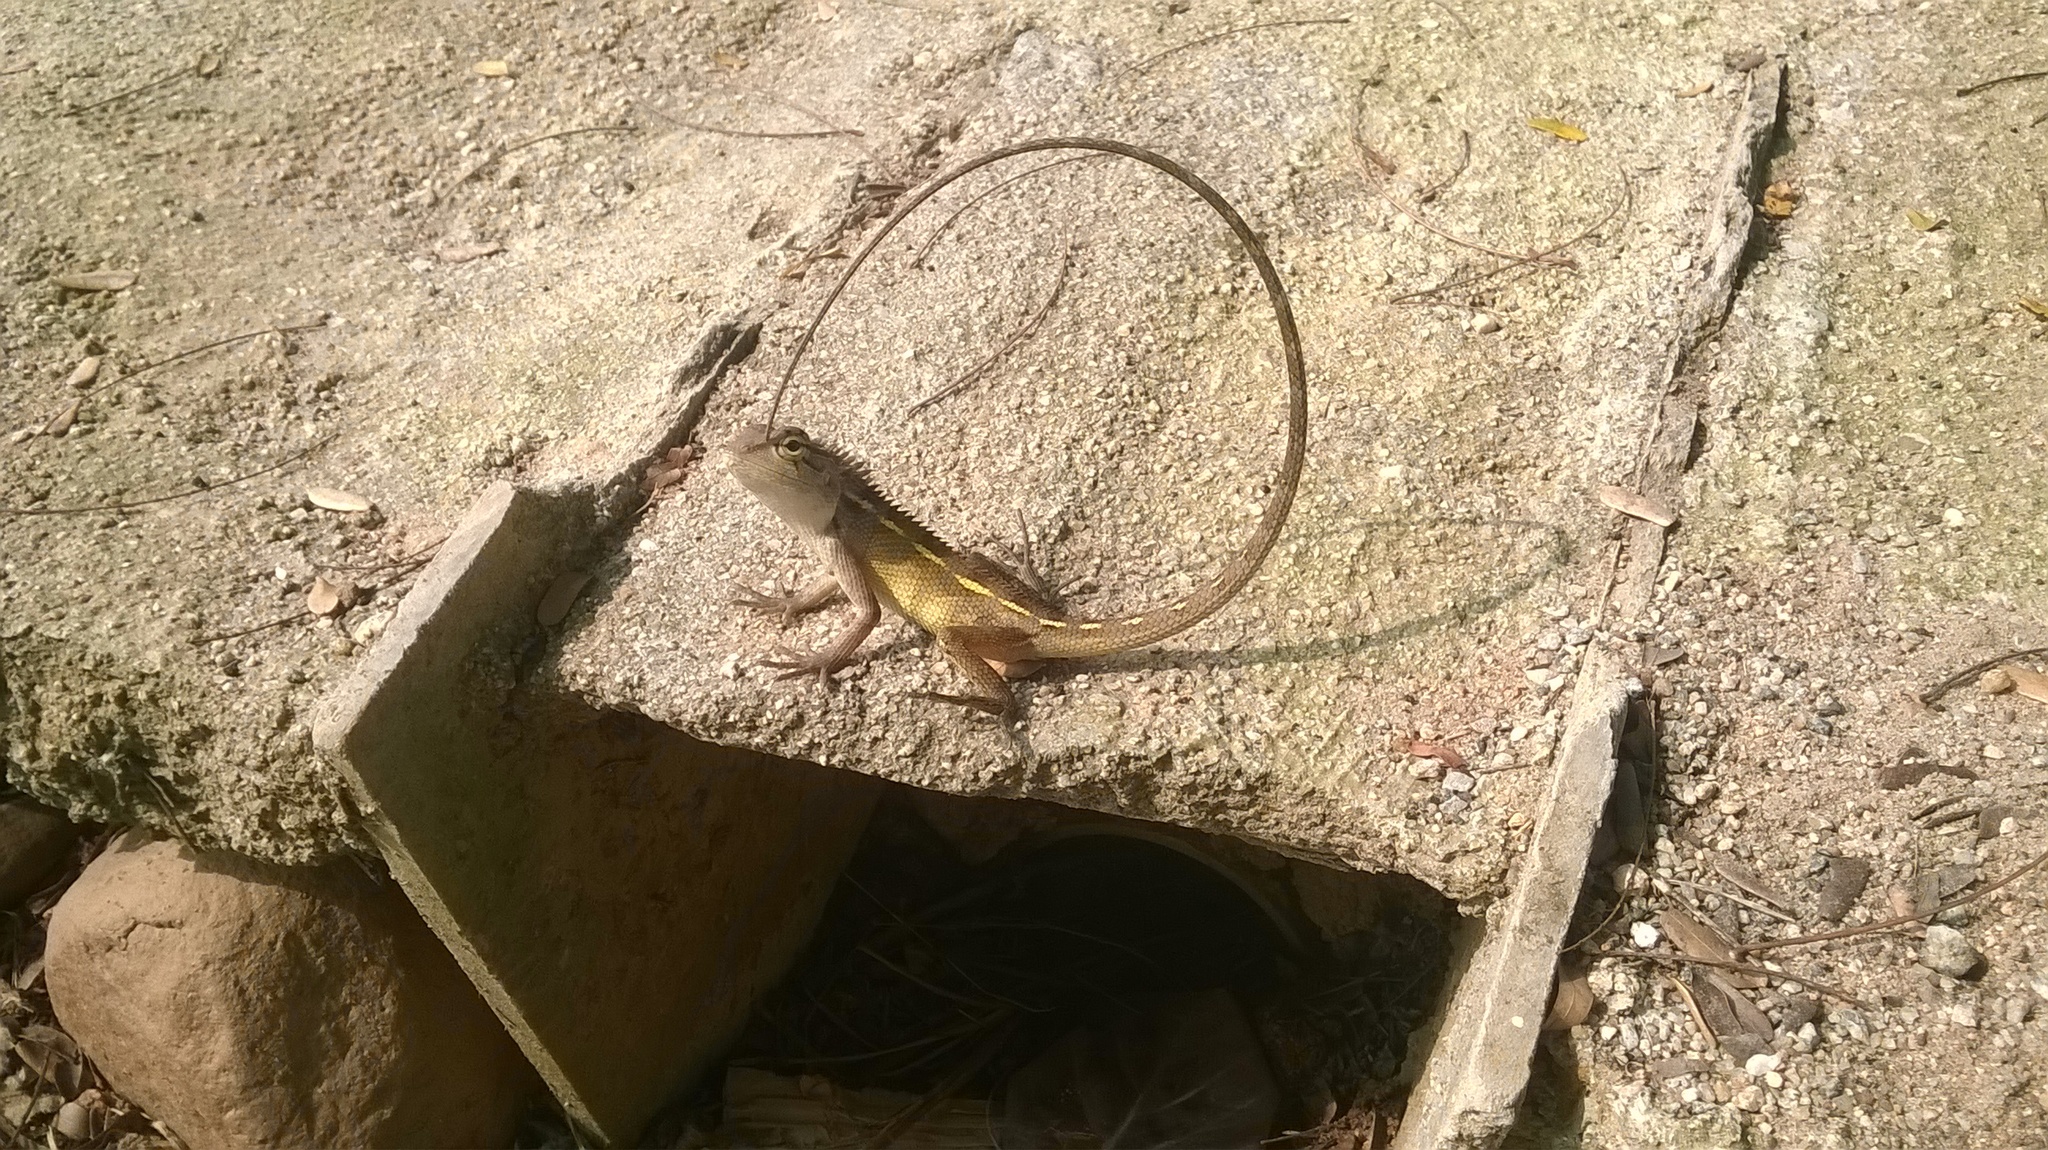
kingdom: Animalia
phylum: Chordata
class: Squamata
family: Agamidae
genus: Calotes
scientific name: Calotes versicolor
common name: Oriental garden lizard
